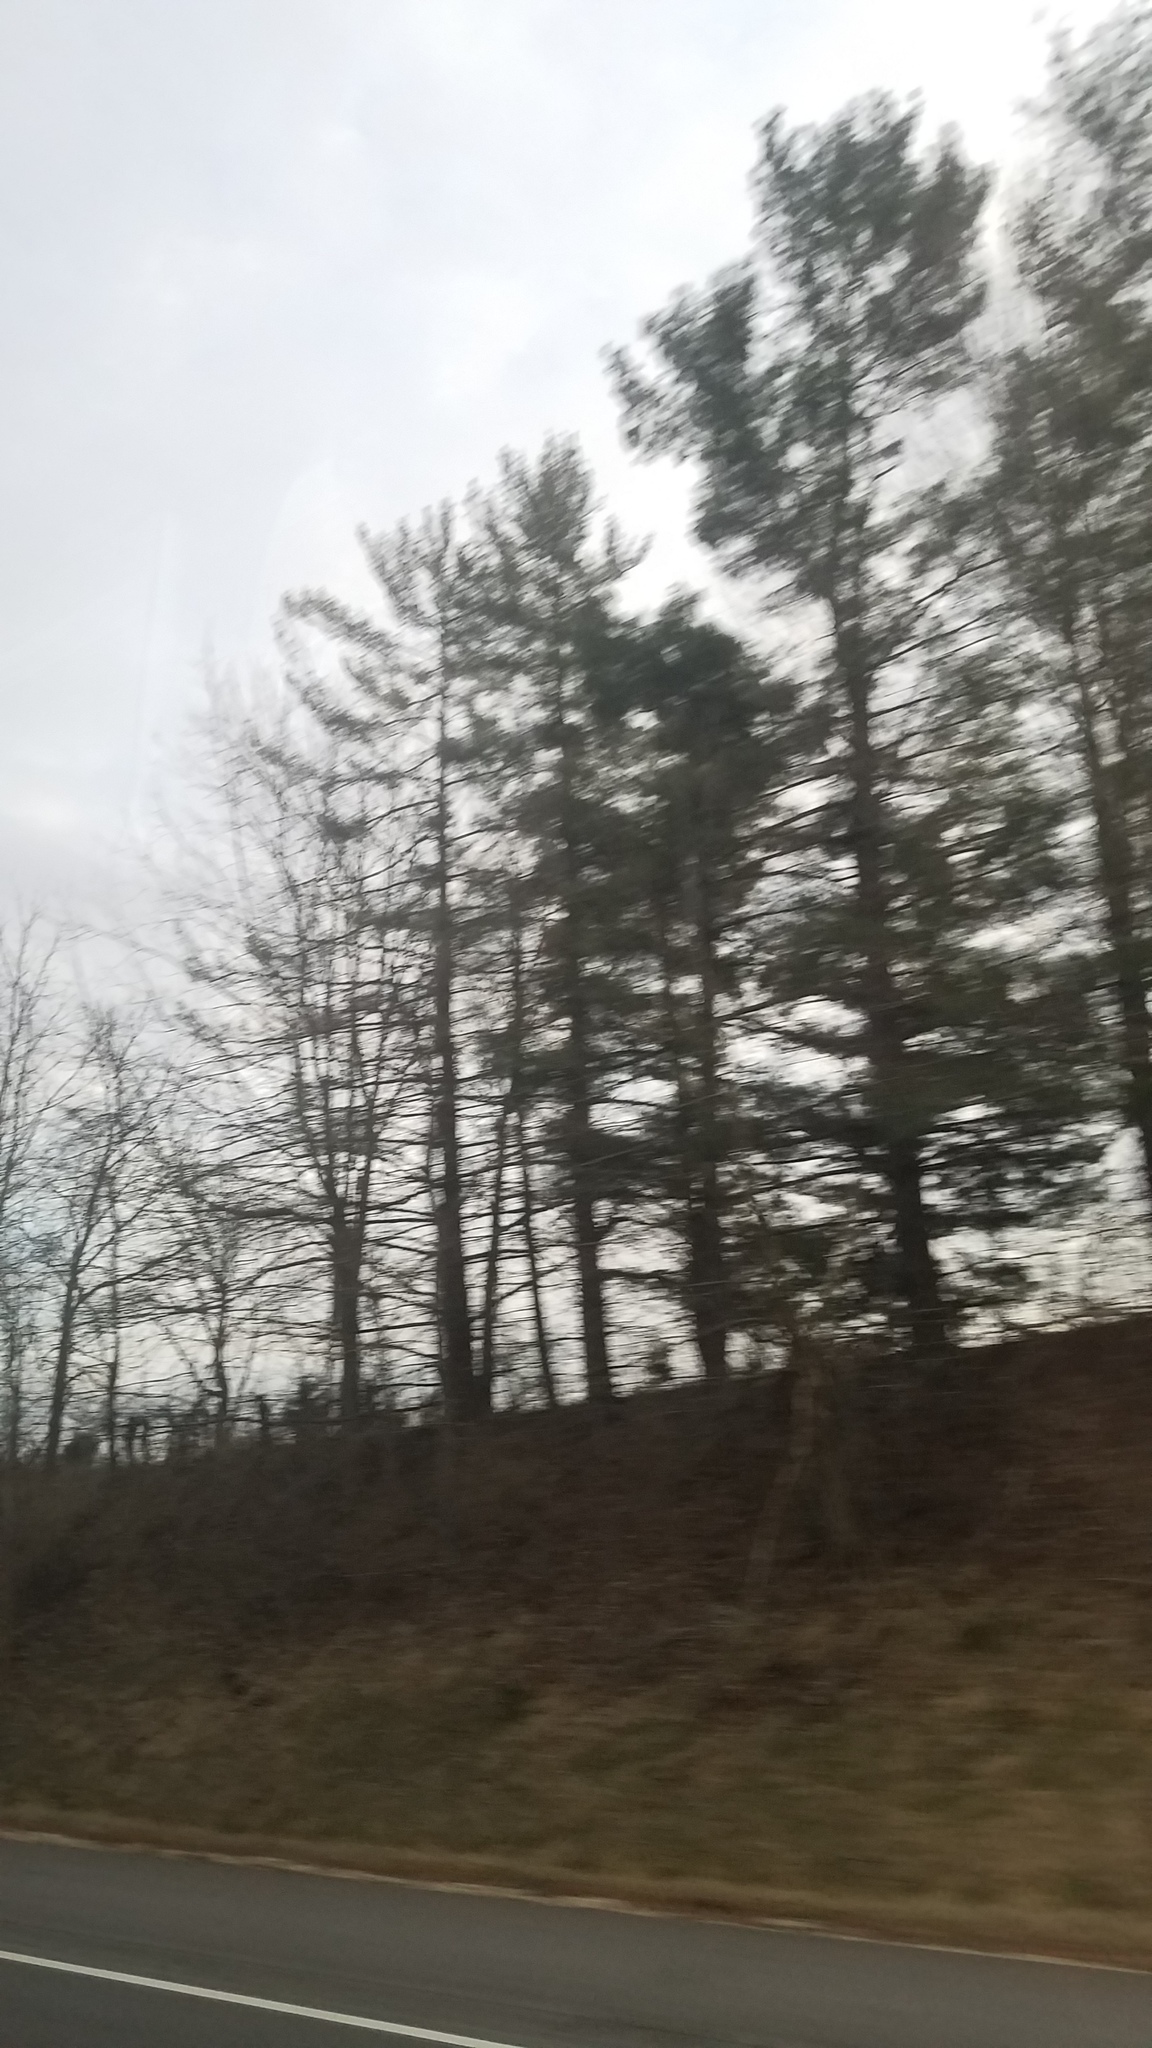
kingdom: Plantae
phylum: Tracheophyta
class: Pinopsida
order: Pinales
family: Pinaceae
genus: Pinus
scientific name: Pinus strobus
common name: Weymouth pine
